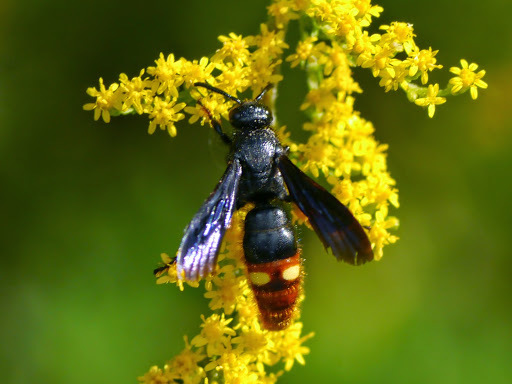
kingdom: Animalia
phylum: Arthropoda
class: Insecta
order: Hymenoptera
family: Scoliidae
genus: Scolia
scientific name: Scolia dubia
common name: Blue-winged scoliid wasp
